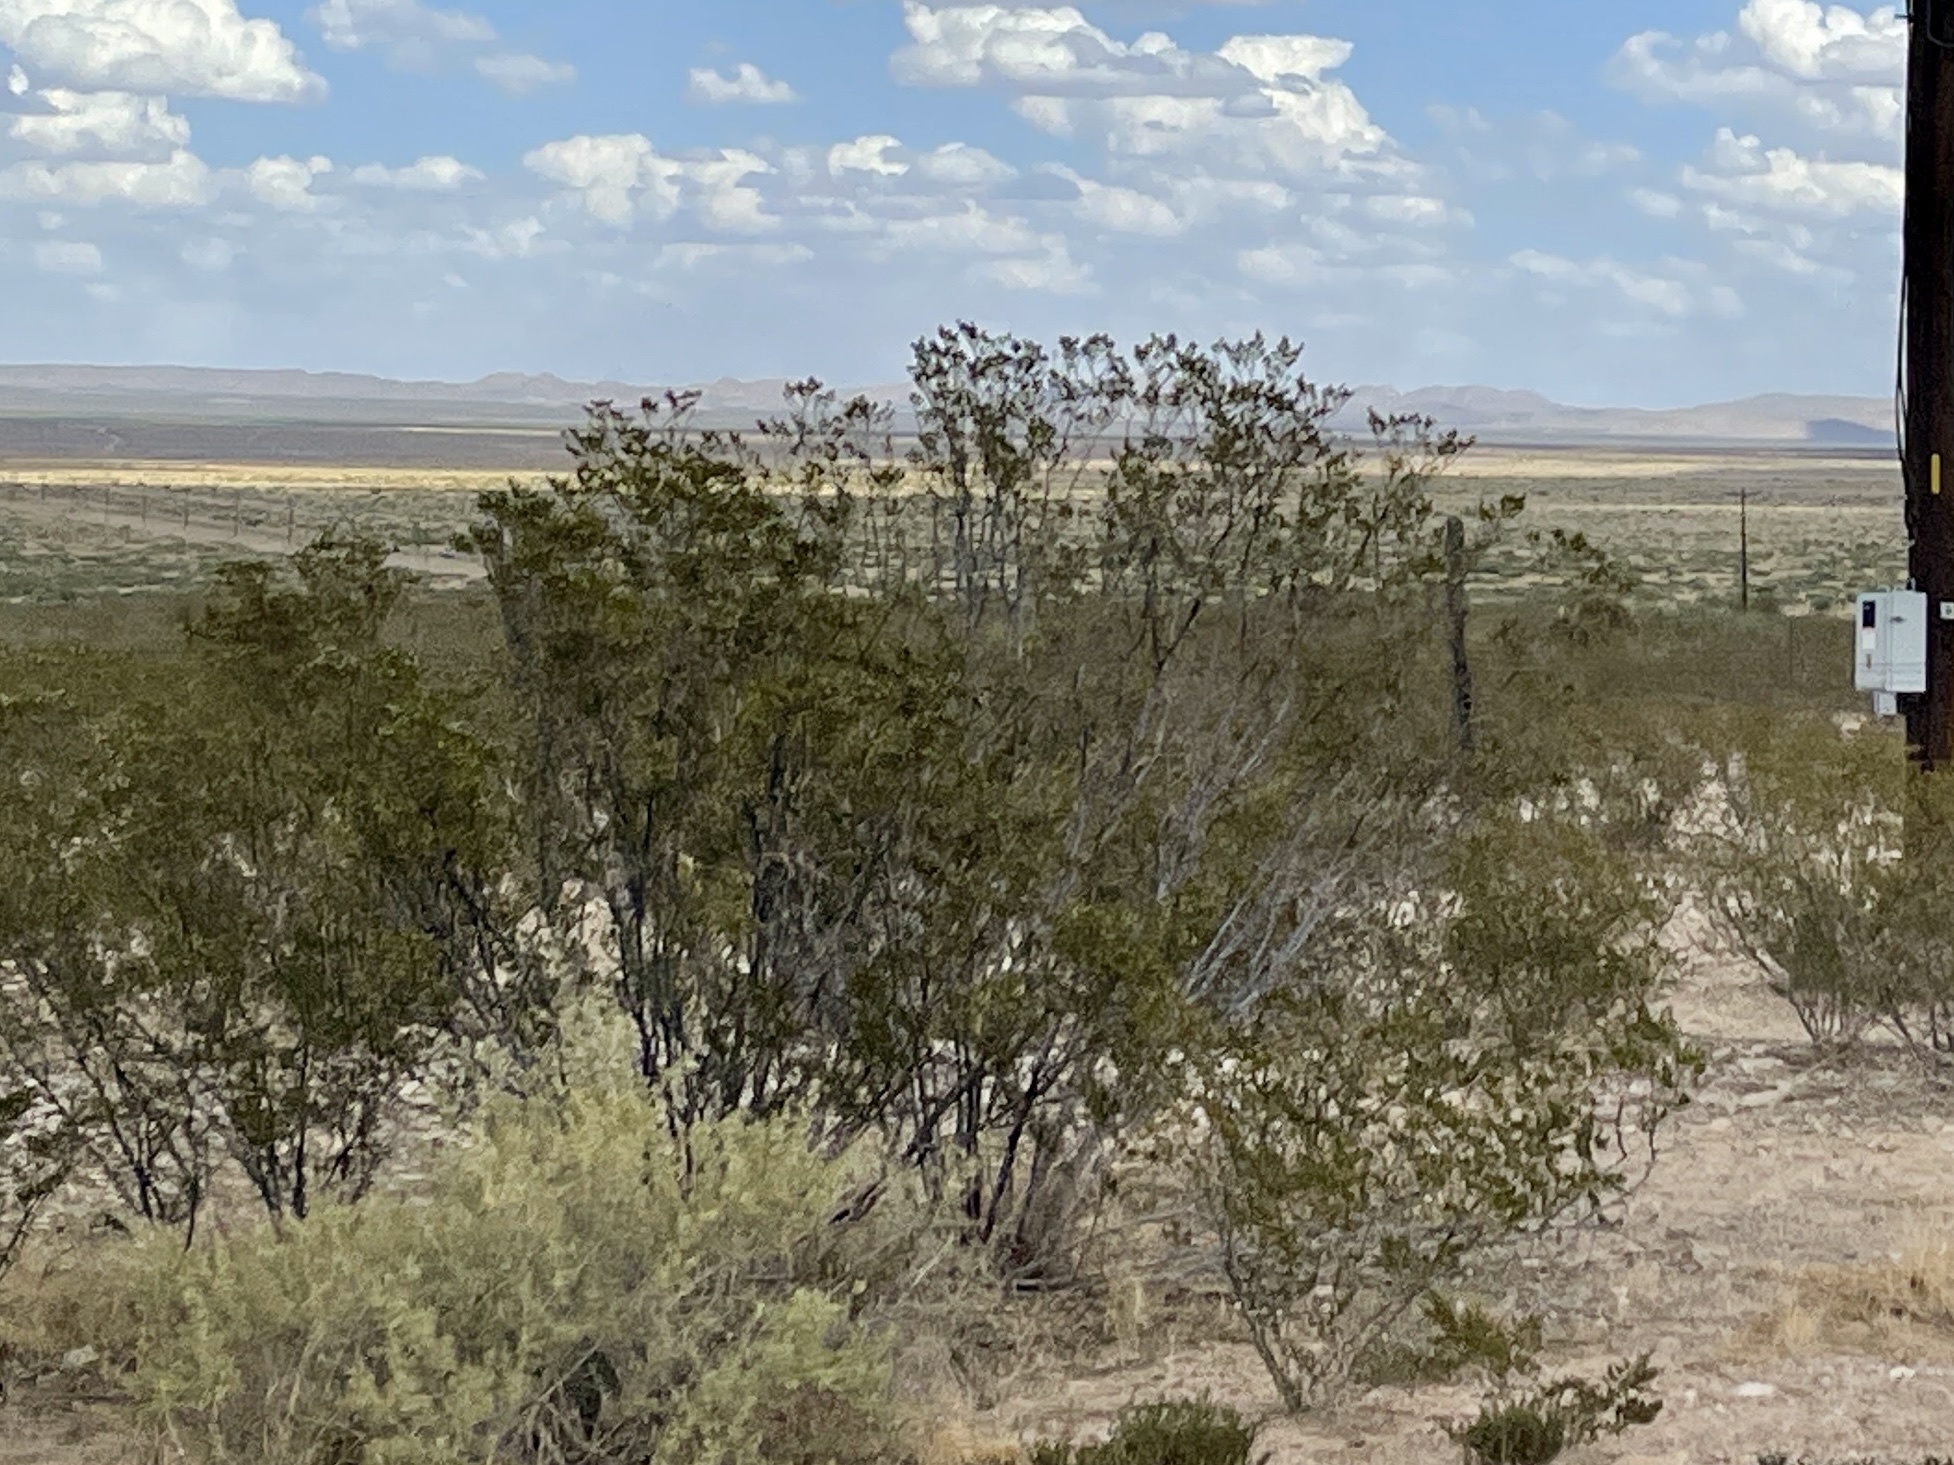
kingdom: Plantae
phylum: Tracheophyta
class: Magnoliopsida
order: Zygophyllales
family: Zygophyllaceae
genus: Larrea
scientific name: Larrea tridentata
